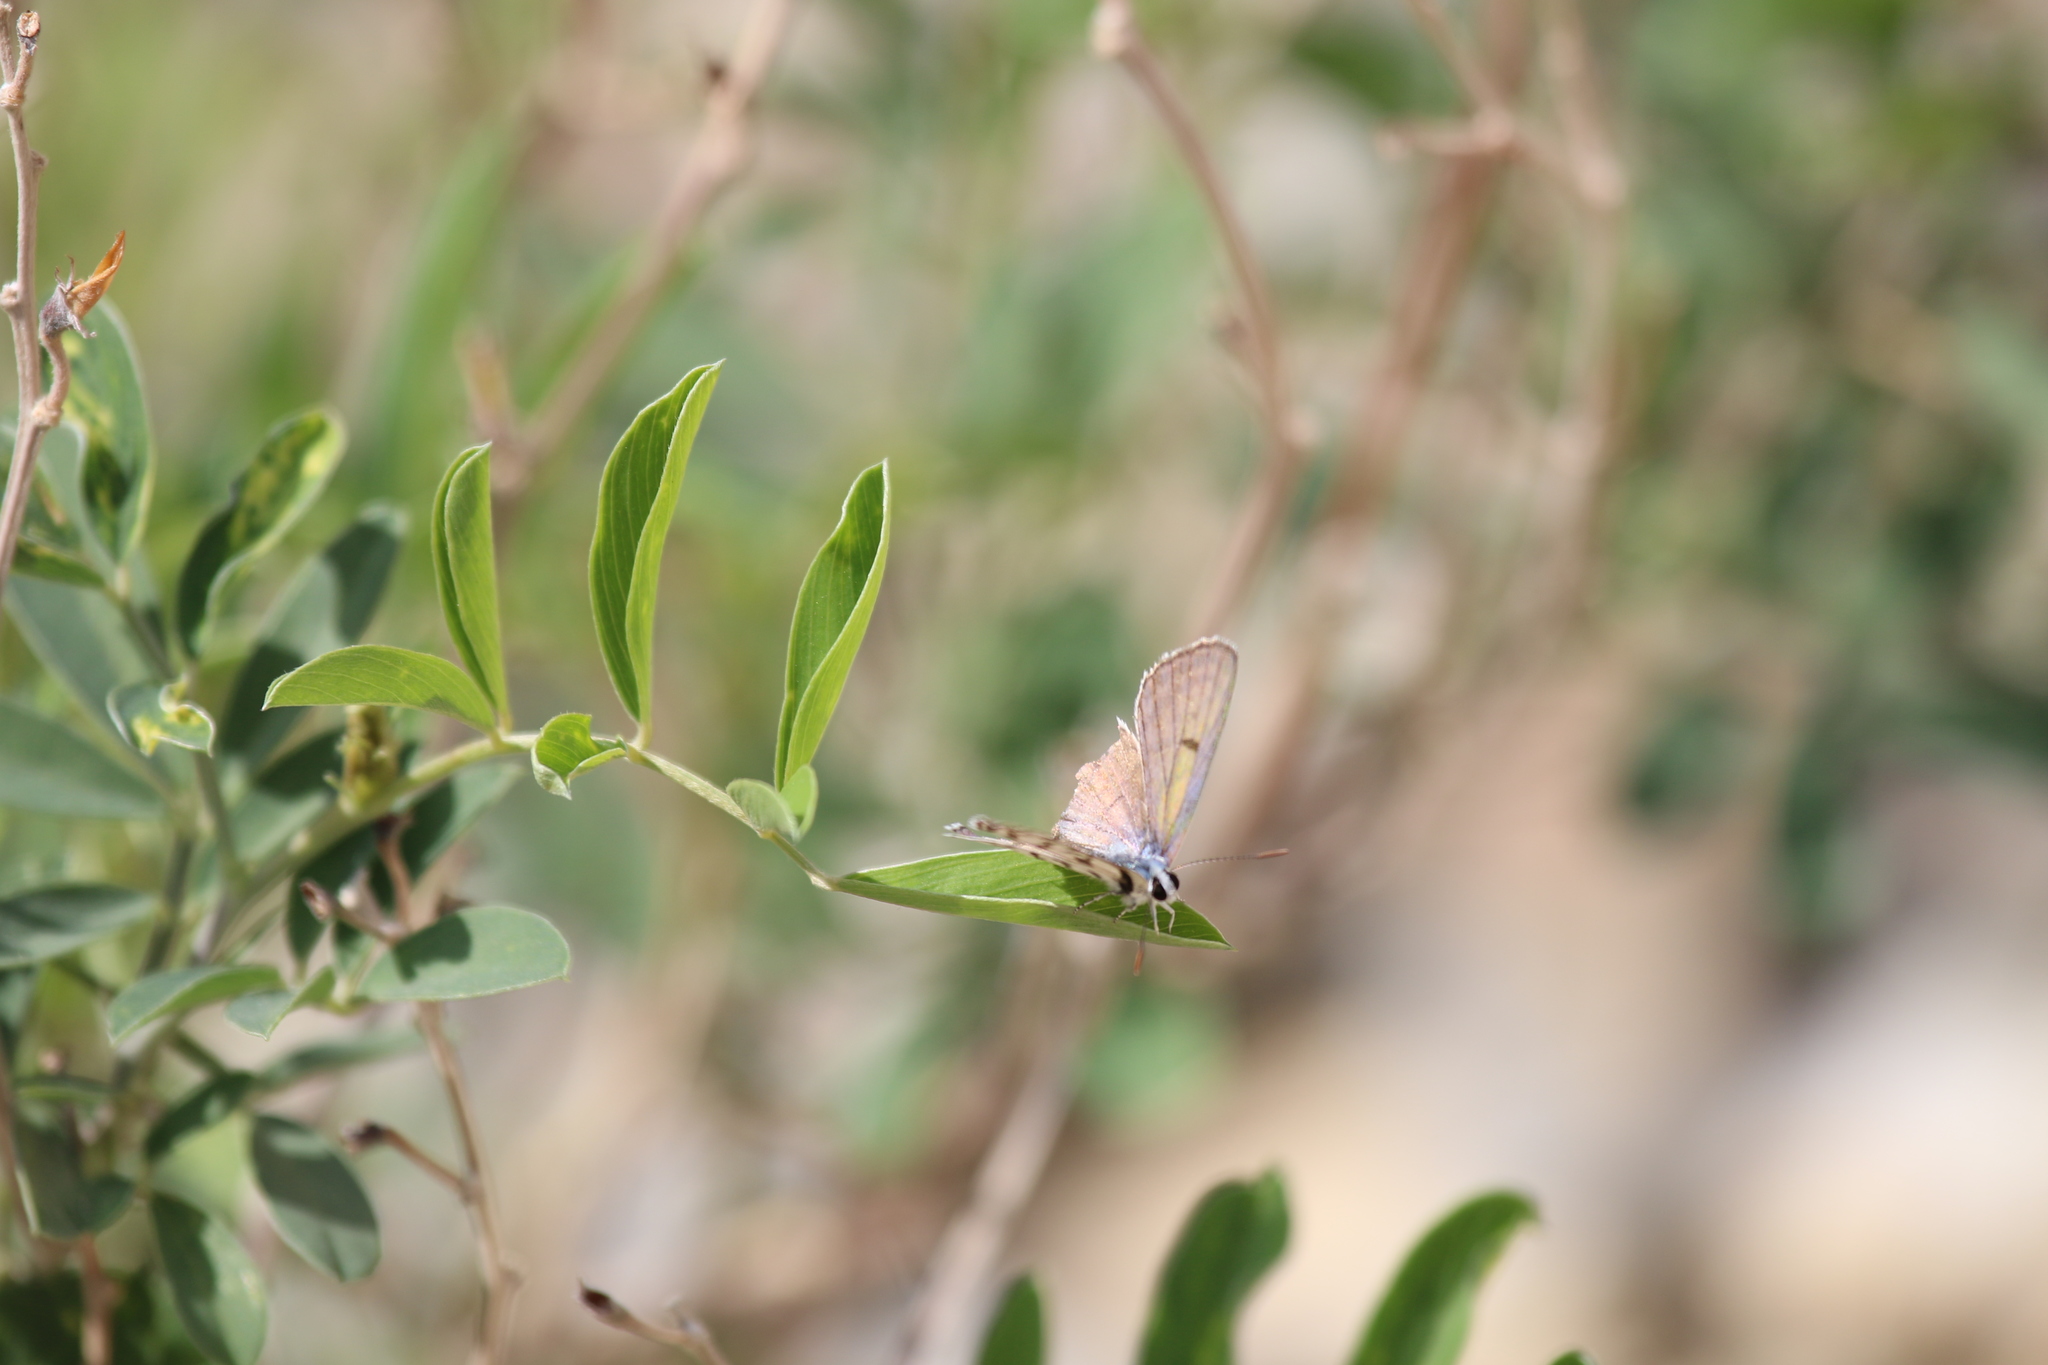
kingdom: Animalia
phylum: Arthropoda
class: Insecta
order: Lepidoptera
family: Lycaenidae
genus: Tarucus
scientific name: Tarucus rosacea
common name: Mediterranean pierrot
